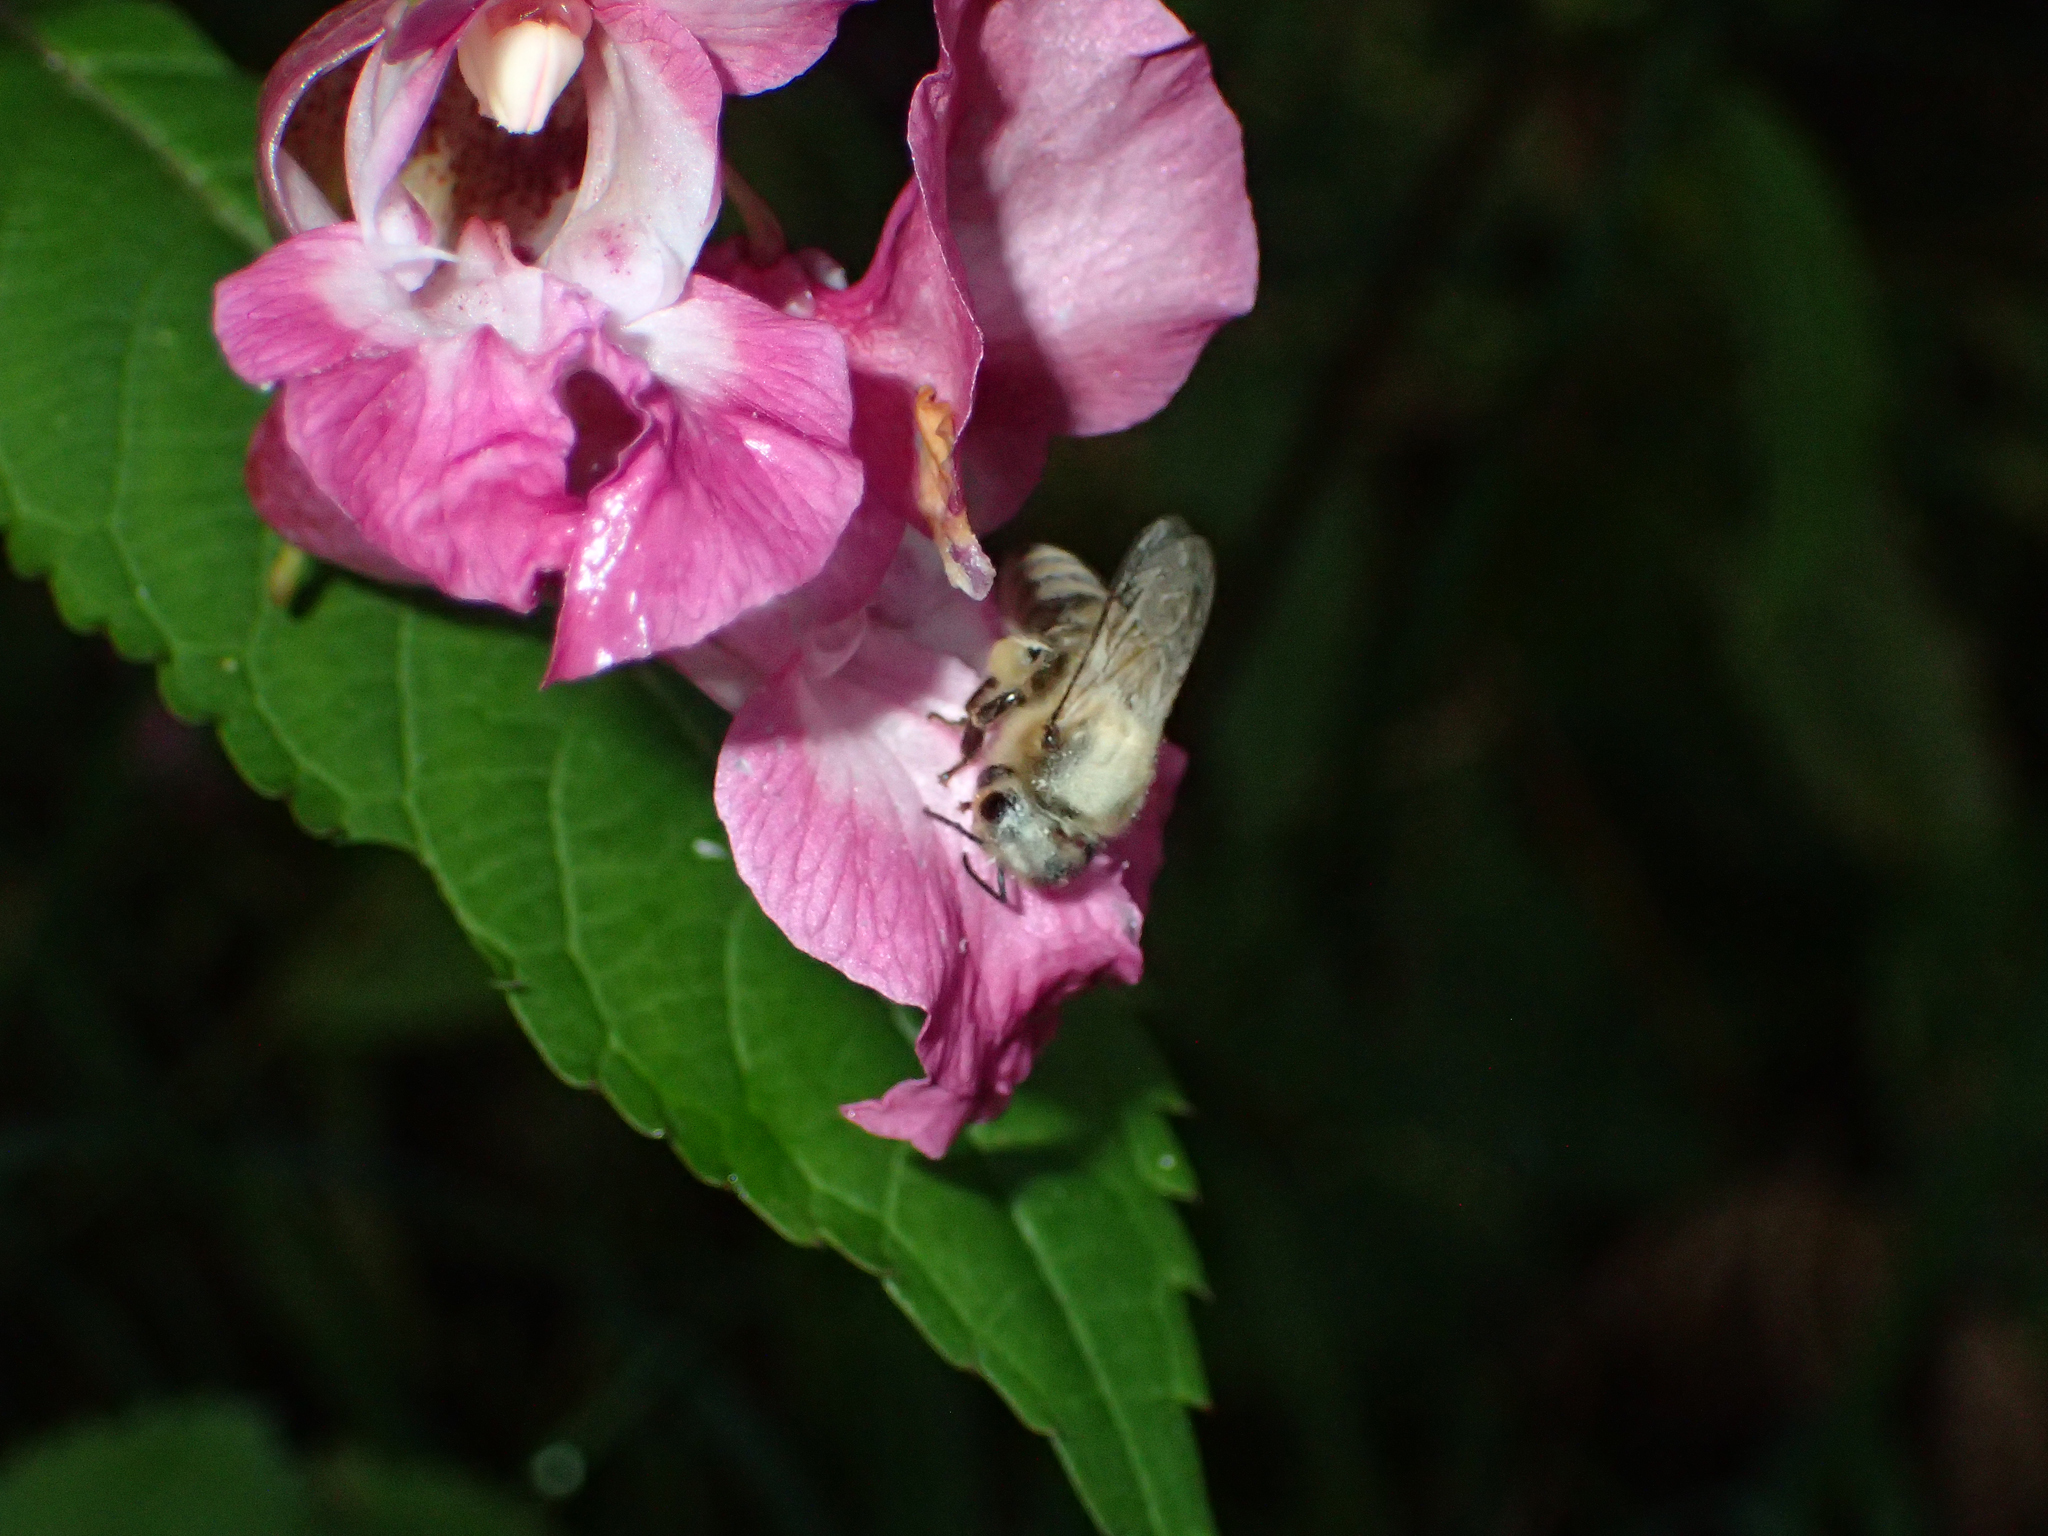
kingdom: Animalia
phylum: Arthropoda
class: Insecta
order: Hymenoptera
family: Apidae
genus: Apis
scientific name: Apis mellifera
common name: Honey bee
